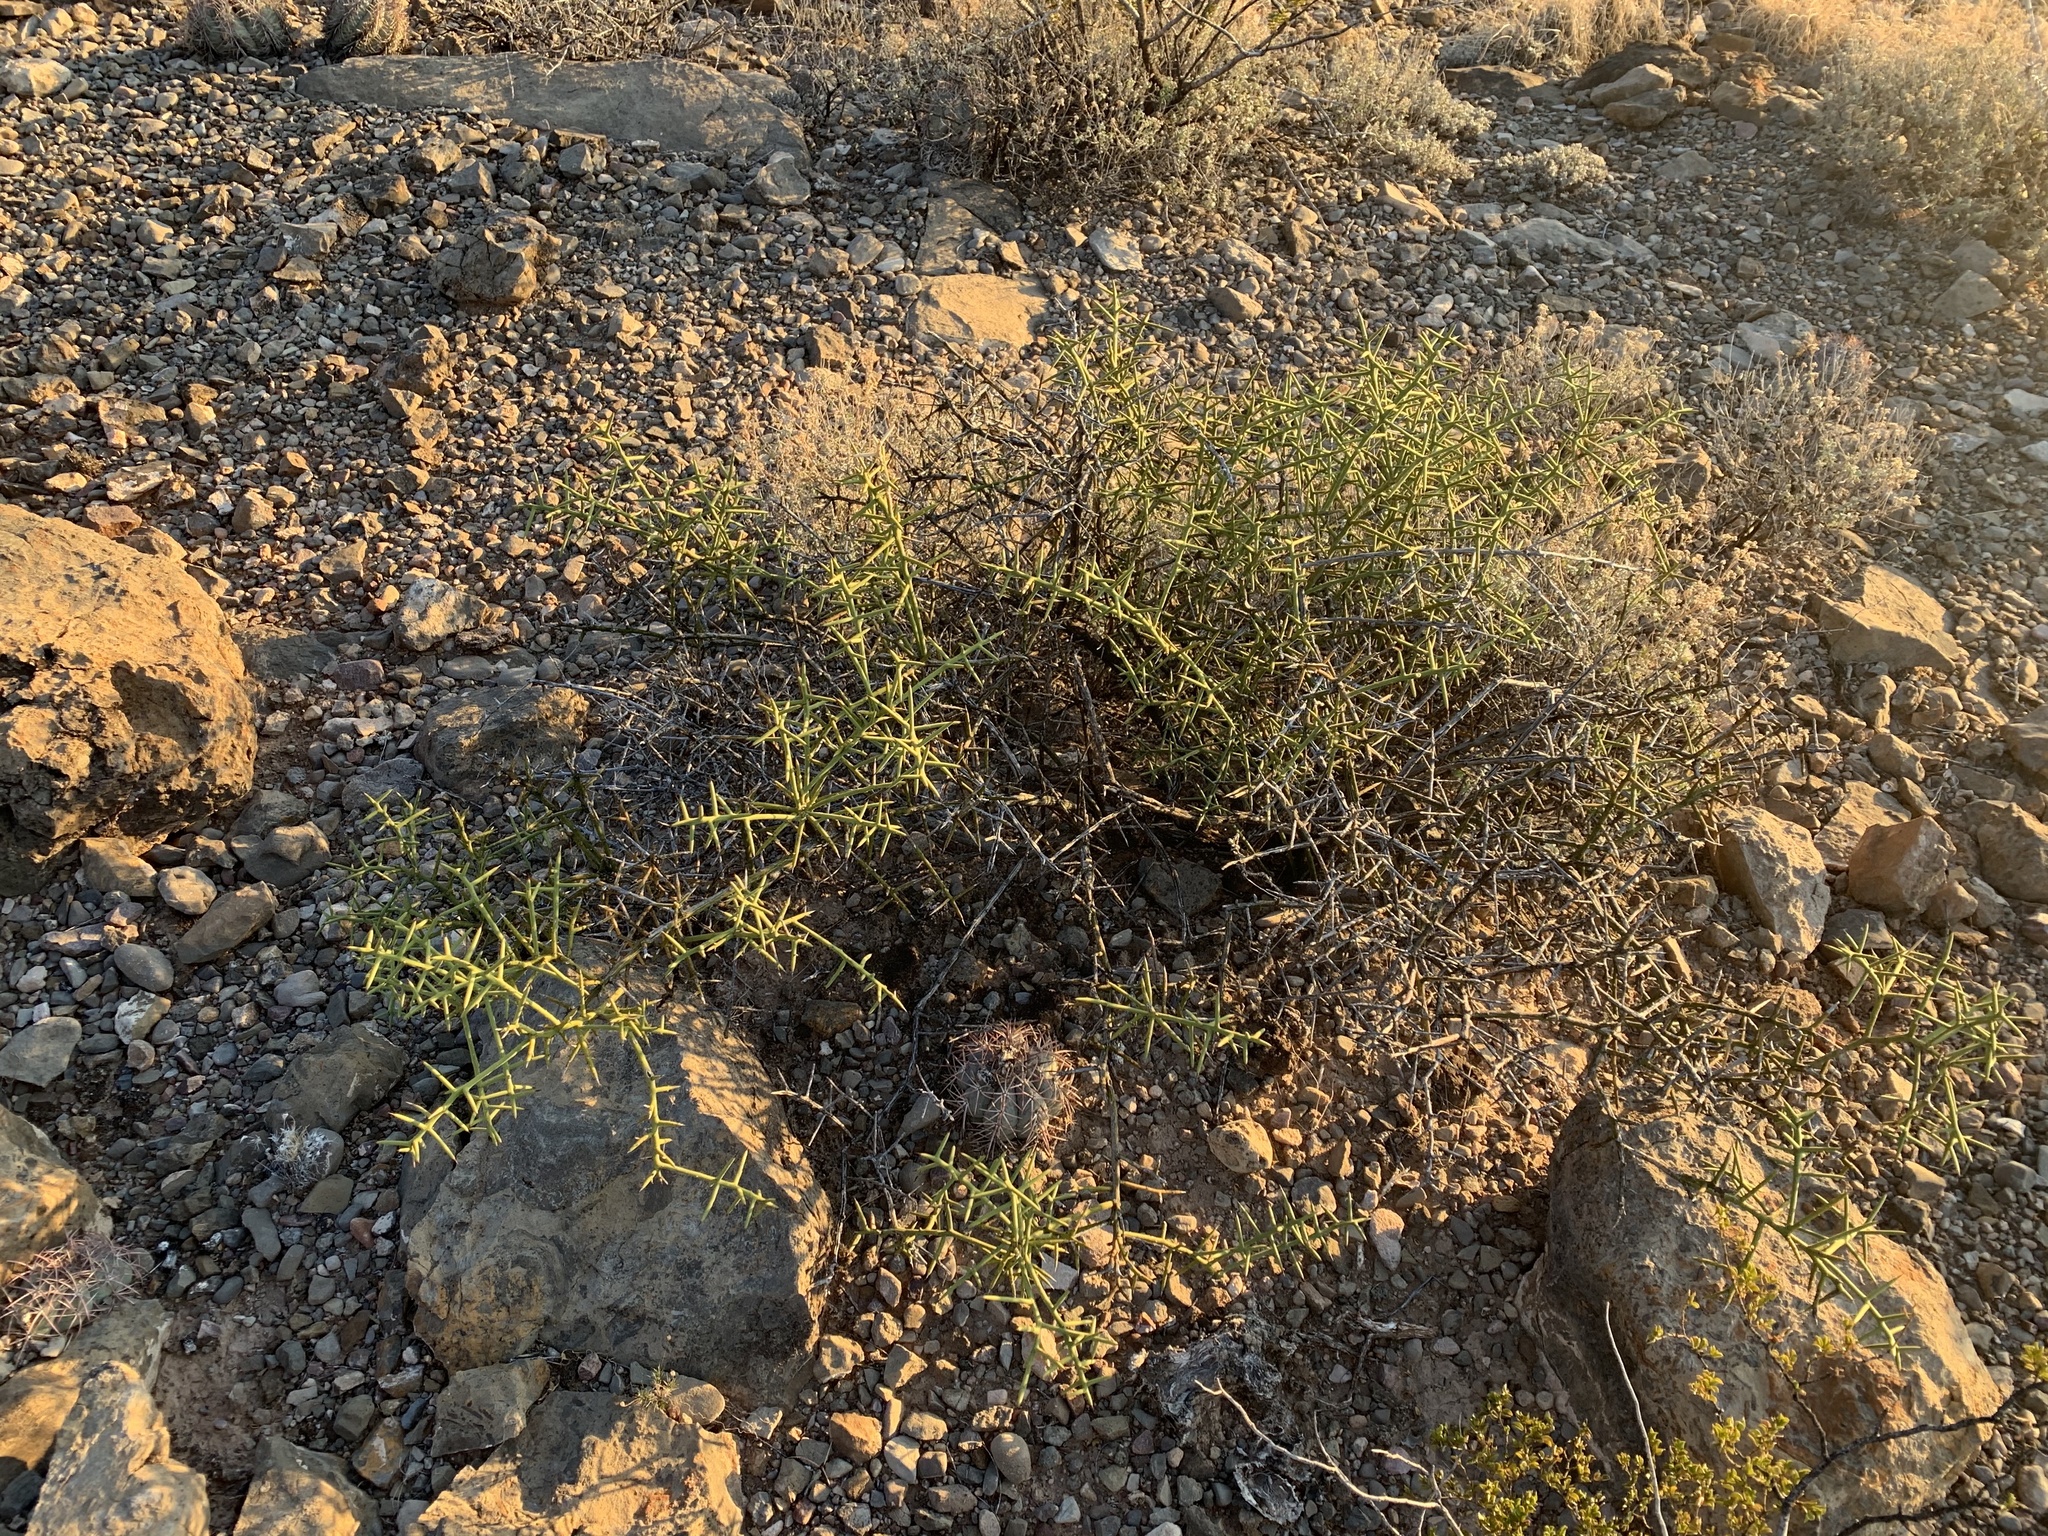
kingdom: Plantae
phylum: Tracheophyta
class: Magnoliopsida
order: Brassicales
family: Koeberliniaceae
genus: Koeberlinia
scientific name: Koeberlinia spinosa
